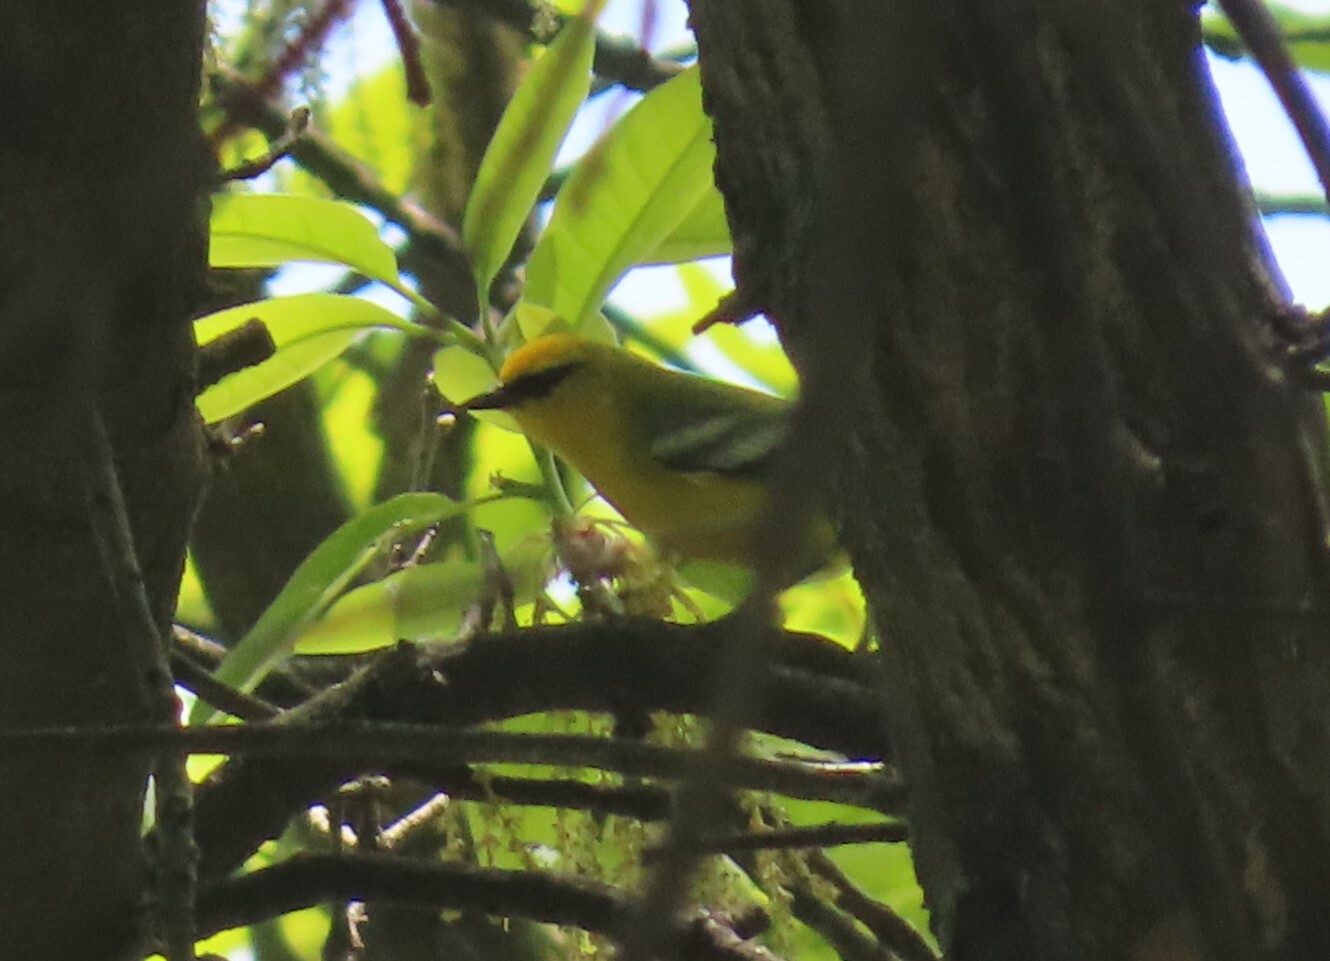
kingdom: Animalia
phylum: Chordata
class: Aves
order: Passeriformes
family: Parulidae
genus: Vermivora
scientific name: Vermivora cyanoptera
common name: Blue-winged warbler
